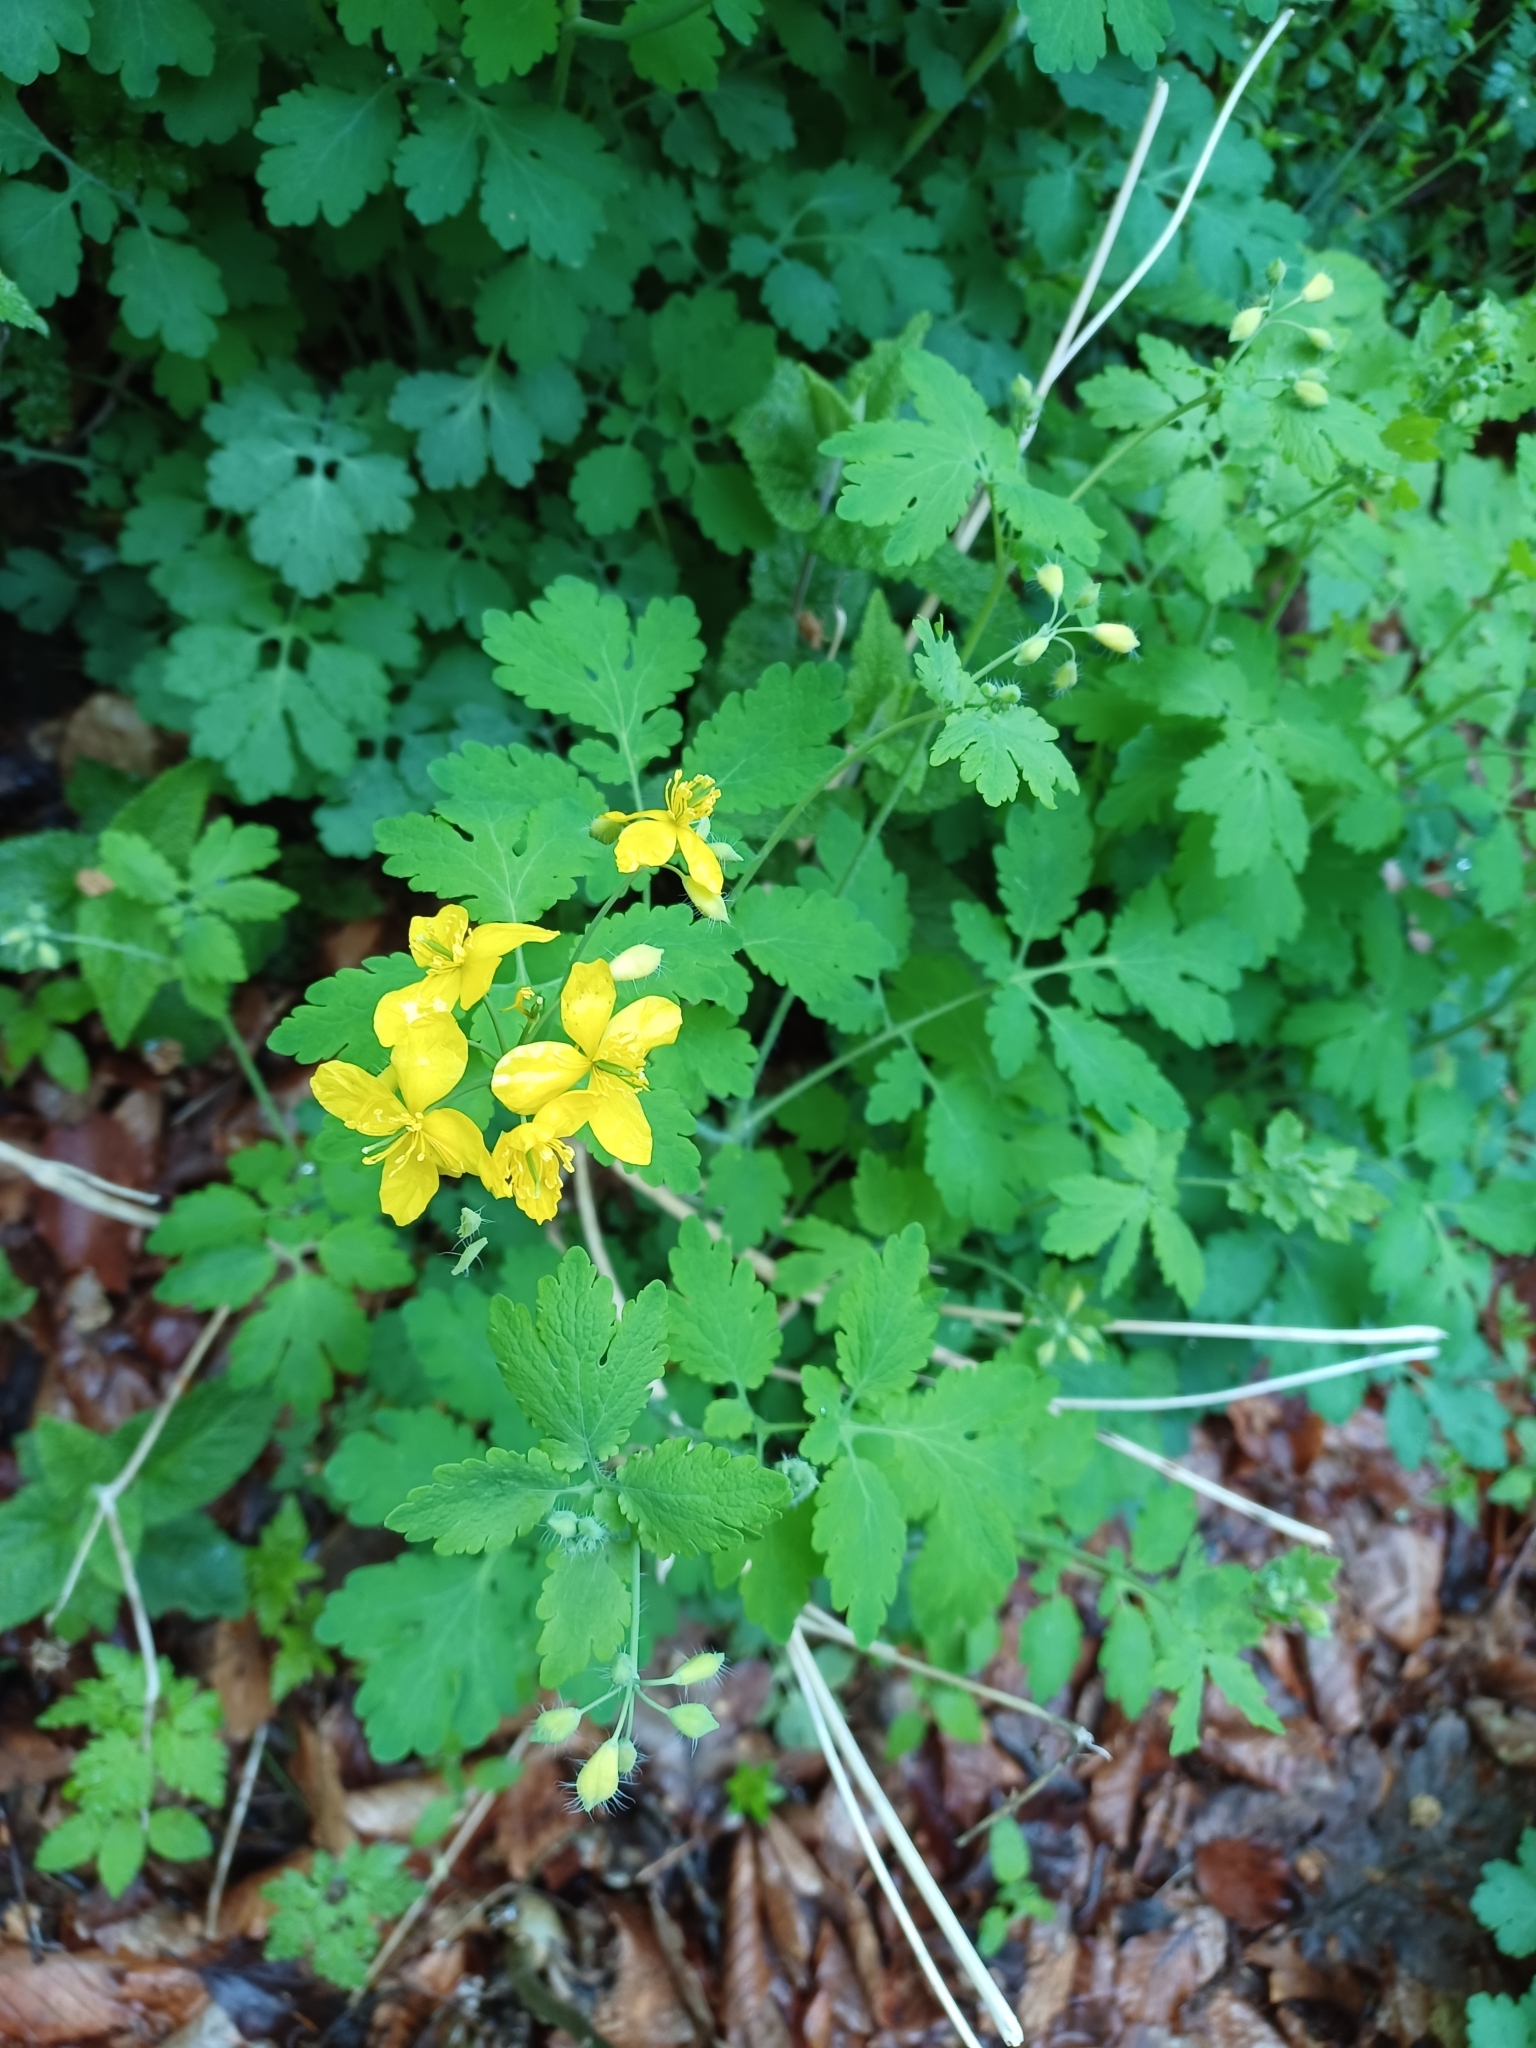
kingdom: Plantae
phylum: Tracheophyta
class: Magnoliopsida
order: Ranunculales
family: Papaveraceae
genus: Chelidonium
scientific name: Chelidonium majus
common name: Greater celandine
